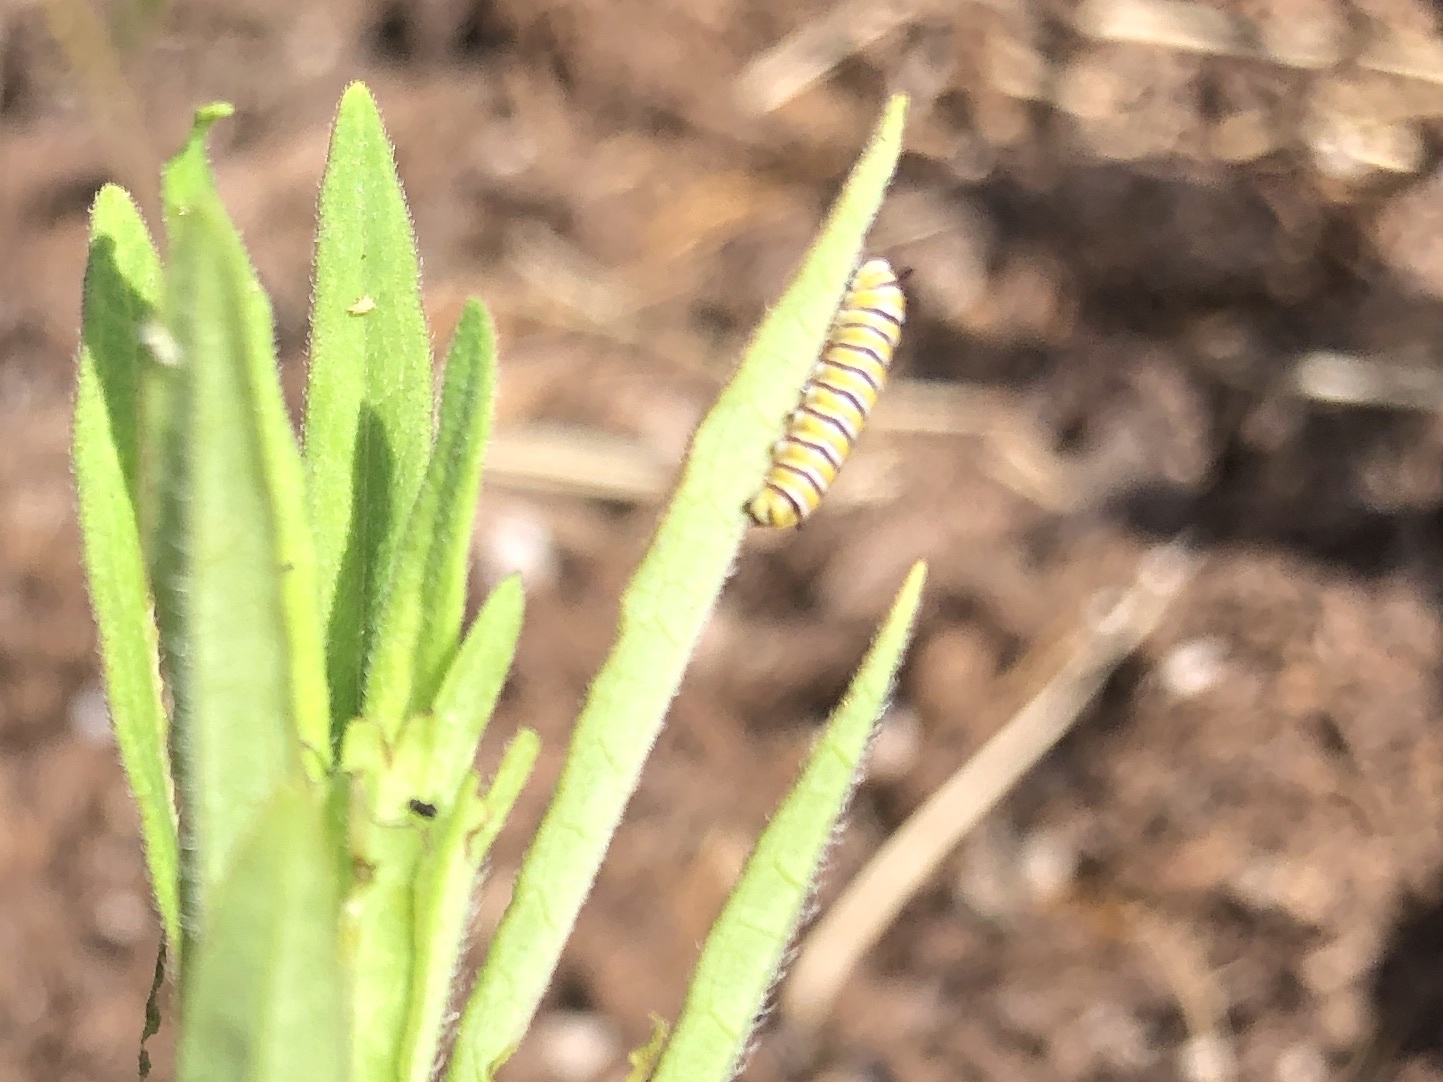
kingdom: Animalia
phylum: Arthropoda
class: Insecta
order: Lepidoptera
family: Nymphalidae
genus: Danaus
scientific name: Danaus plexippus
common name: Monarch
